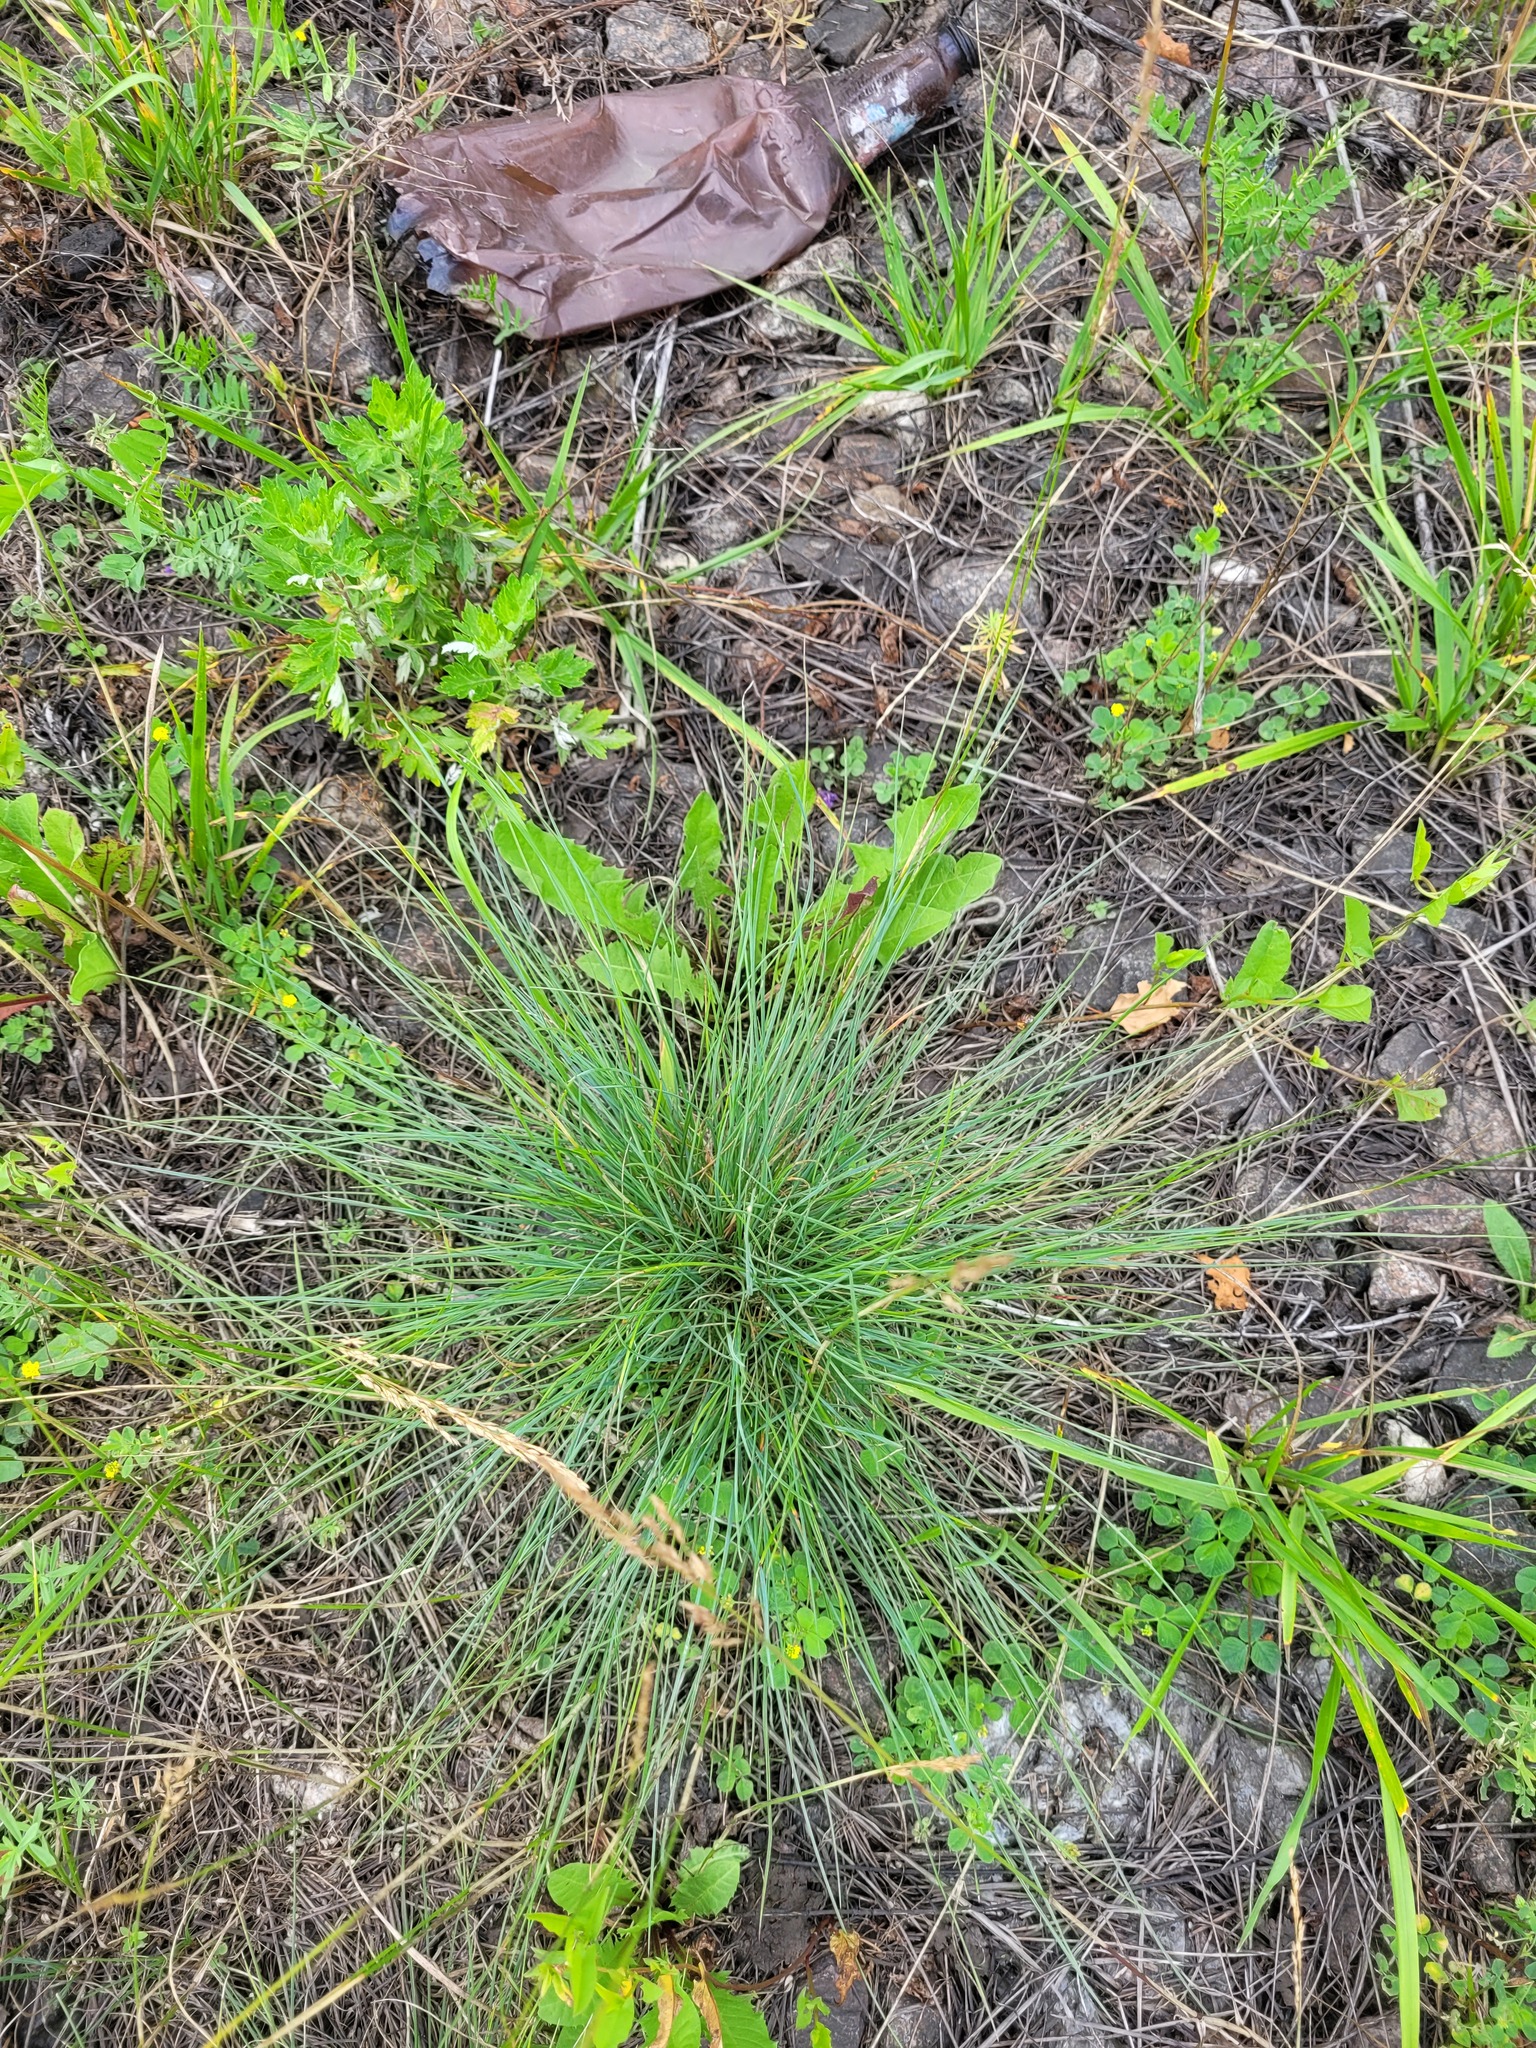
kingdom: Plantae
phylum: Tracheophyta
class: Liliopsida
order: Poales
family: Poaceae
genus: Festuca
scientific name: Festuca trachyphylla
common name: Hard fescue
